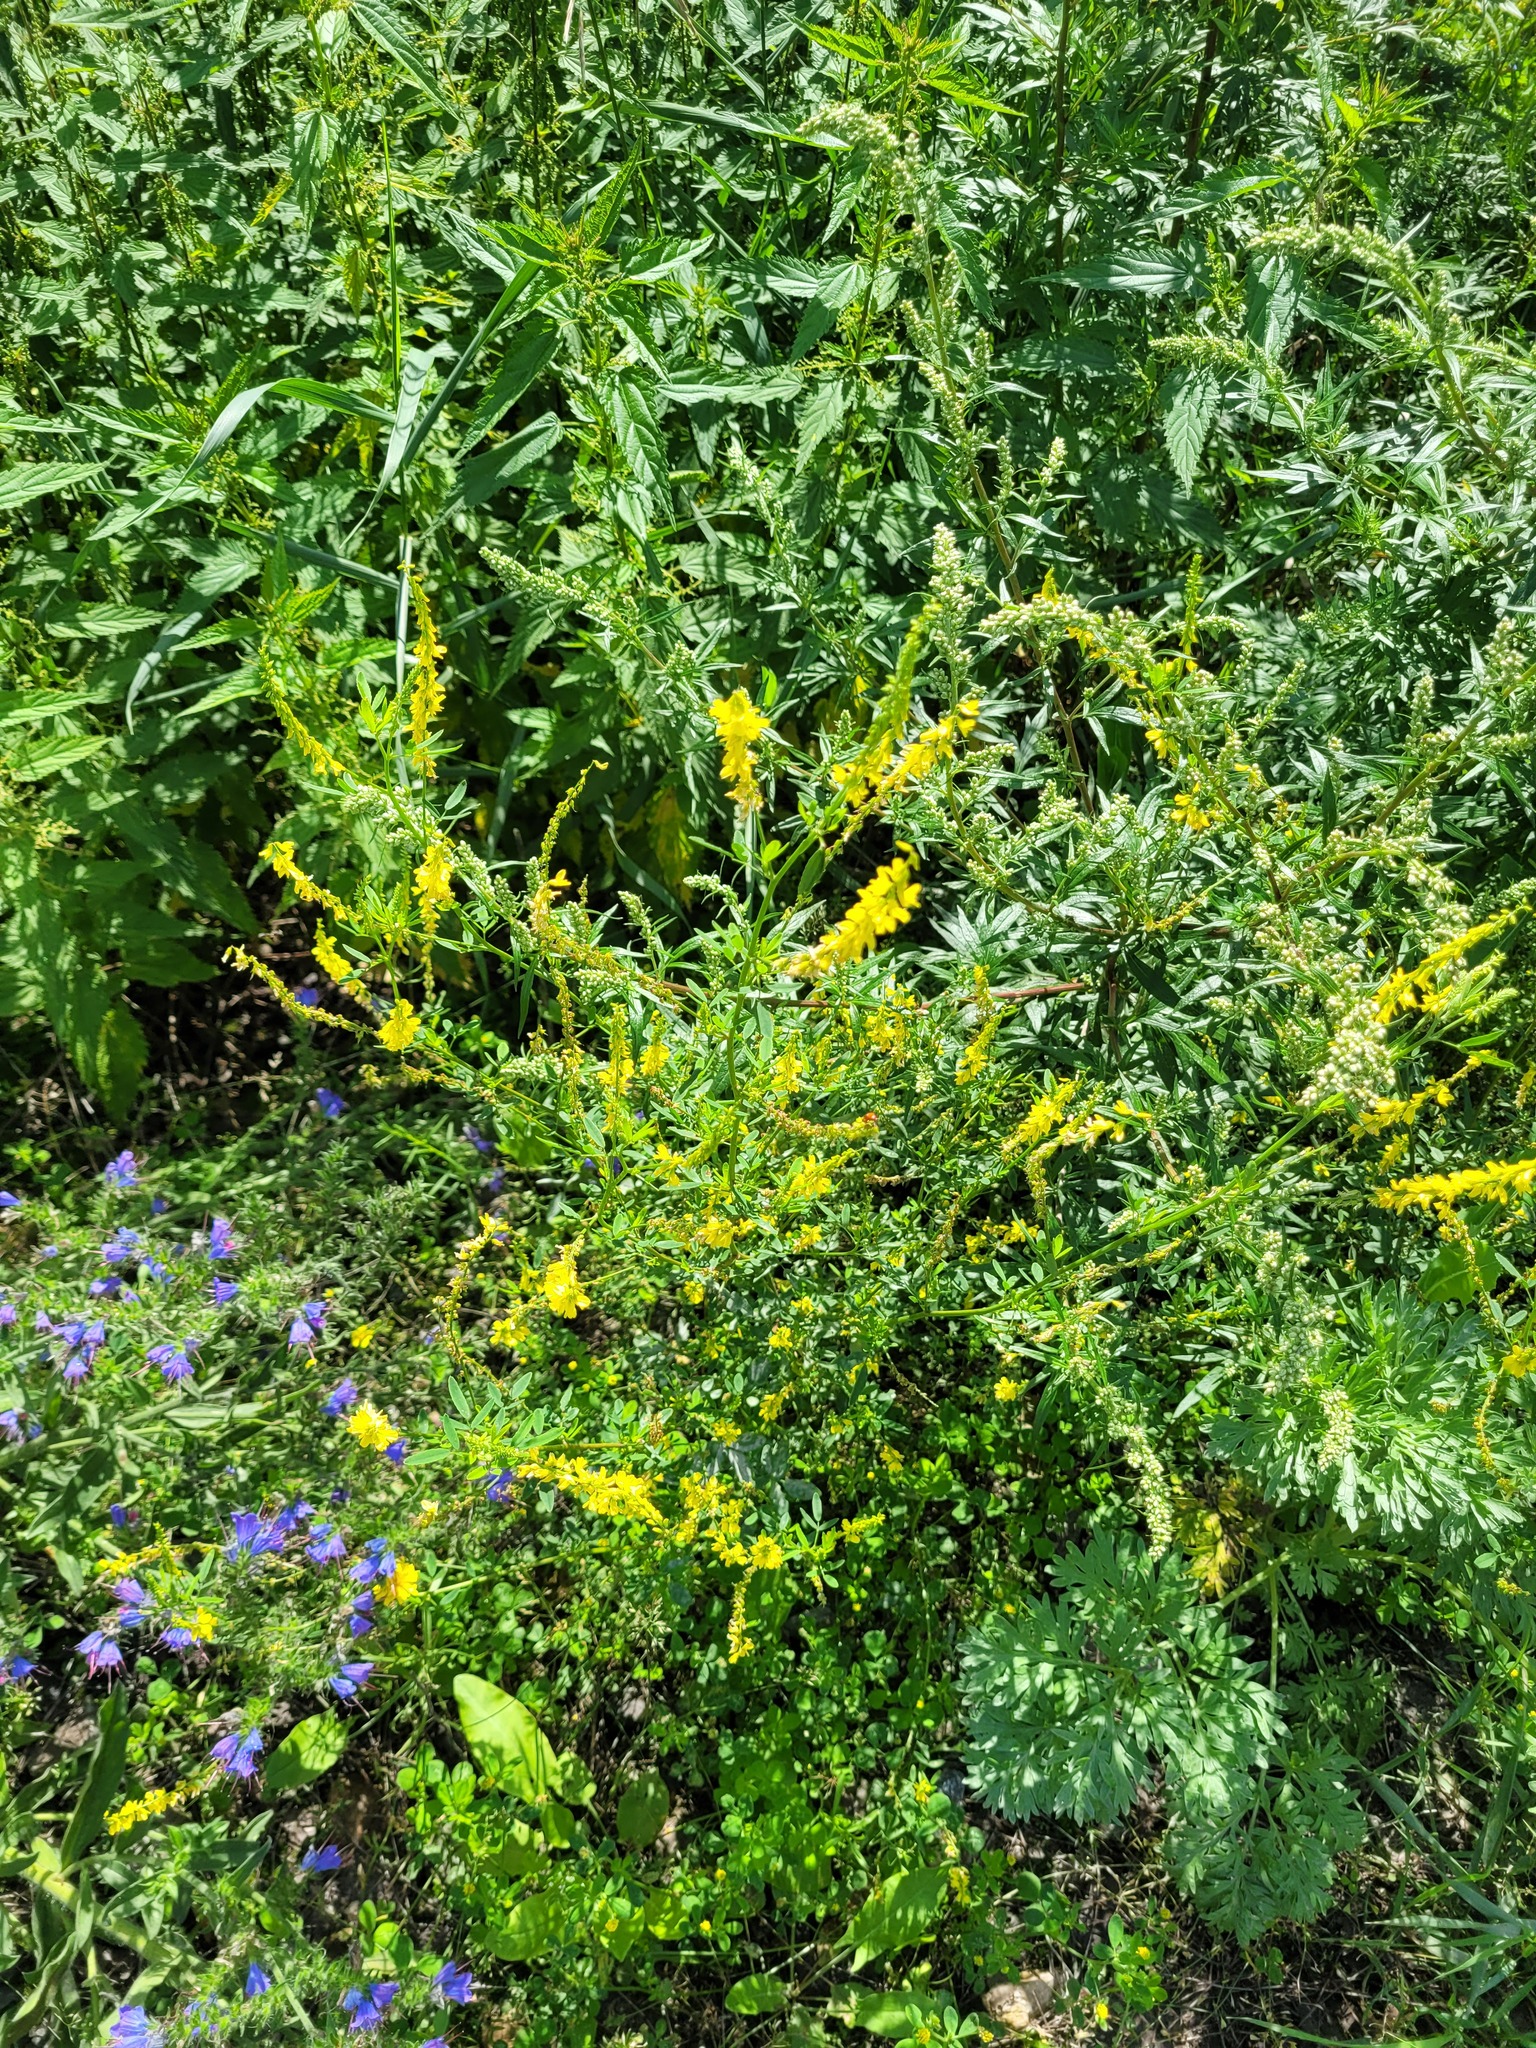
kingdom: Plantae
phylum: Tracheophyta
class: Magnoliopsida
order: Fabales
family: Fabaceae
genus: Melilotus
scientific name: Melilotus officinalis
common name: Sweetclover
